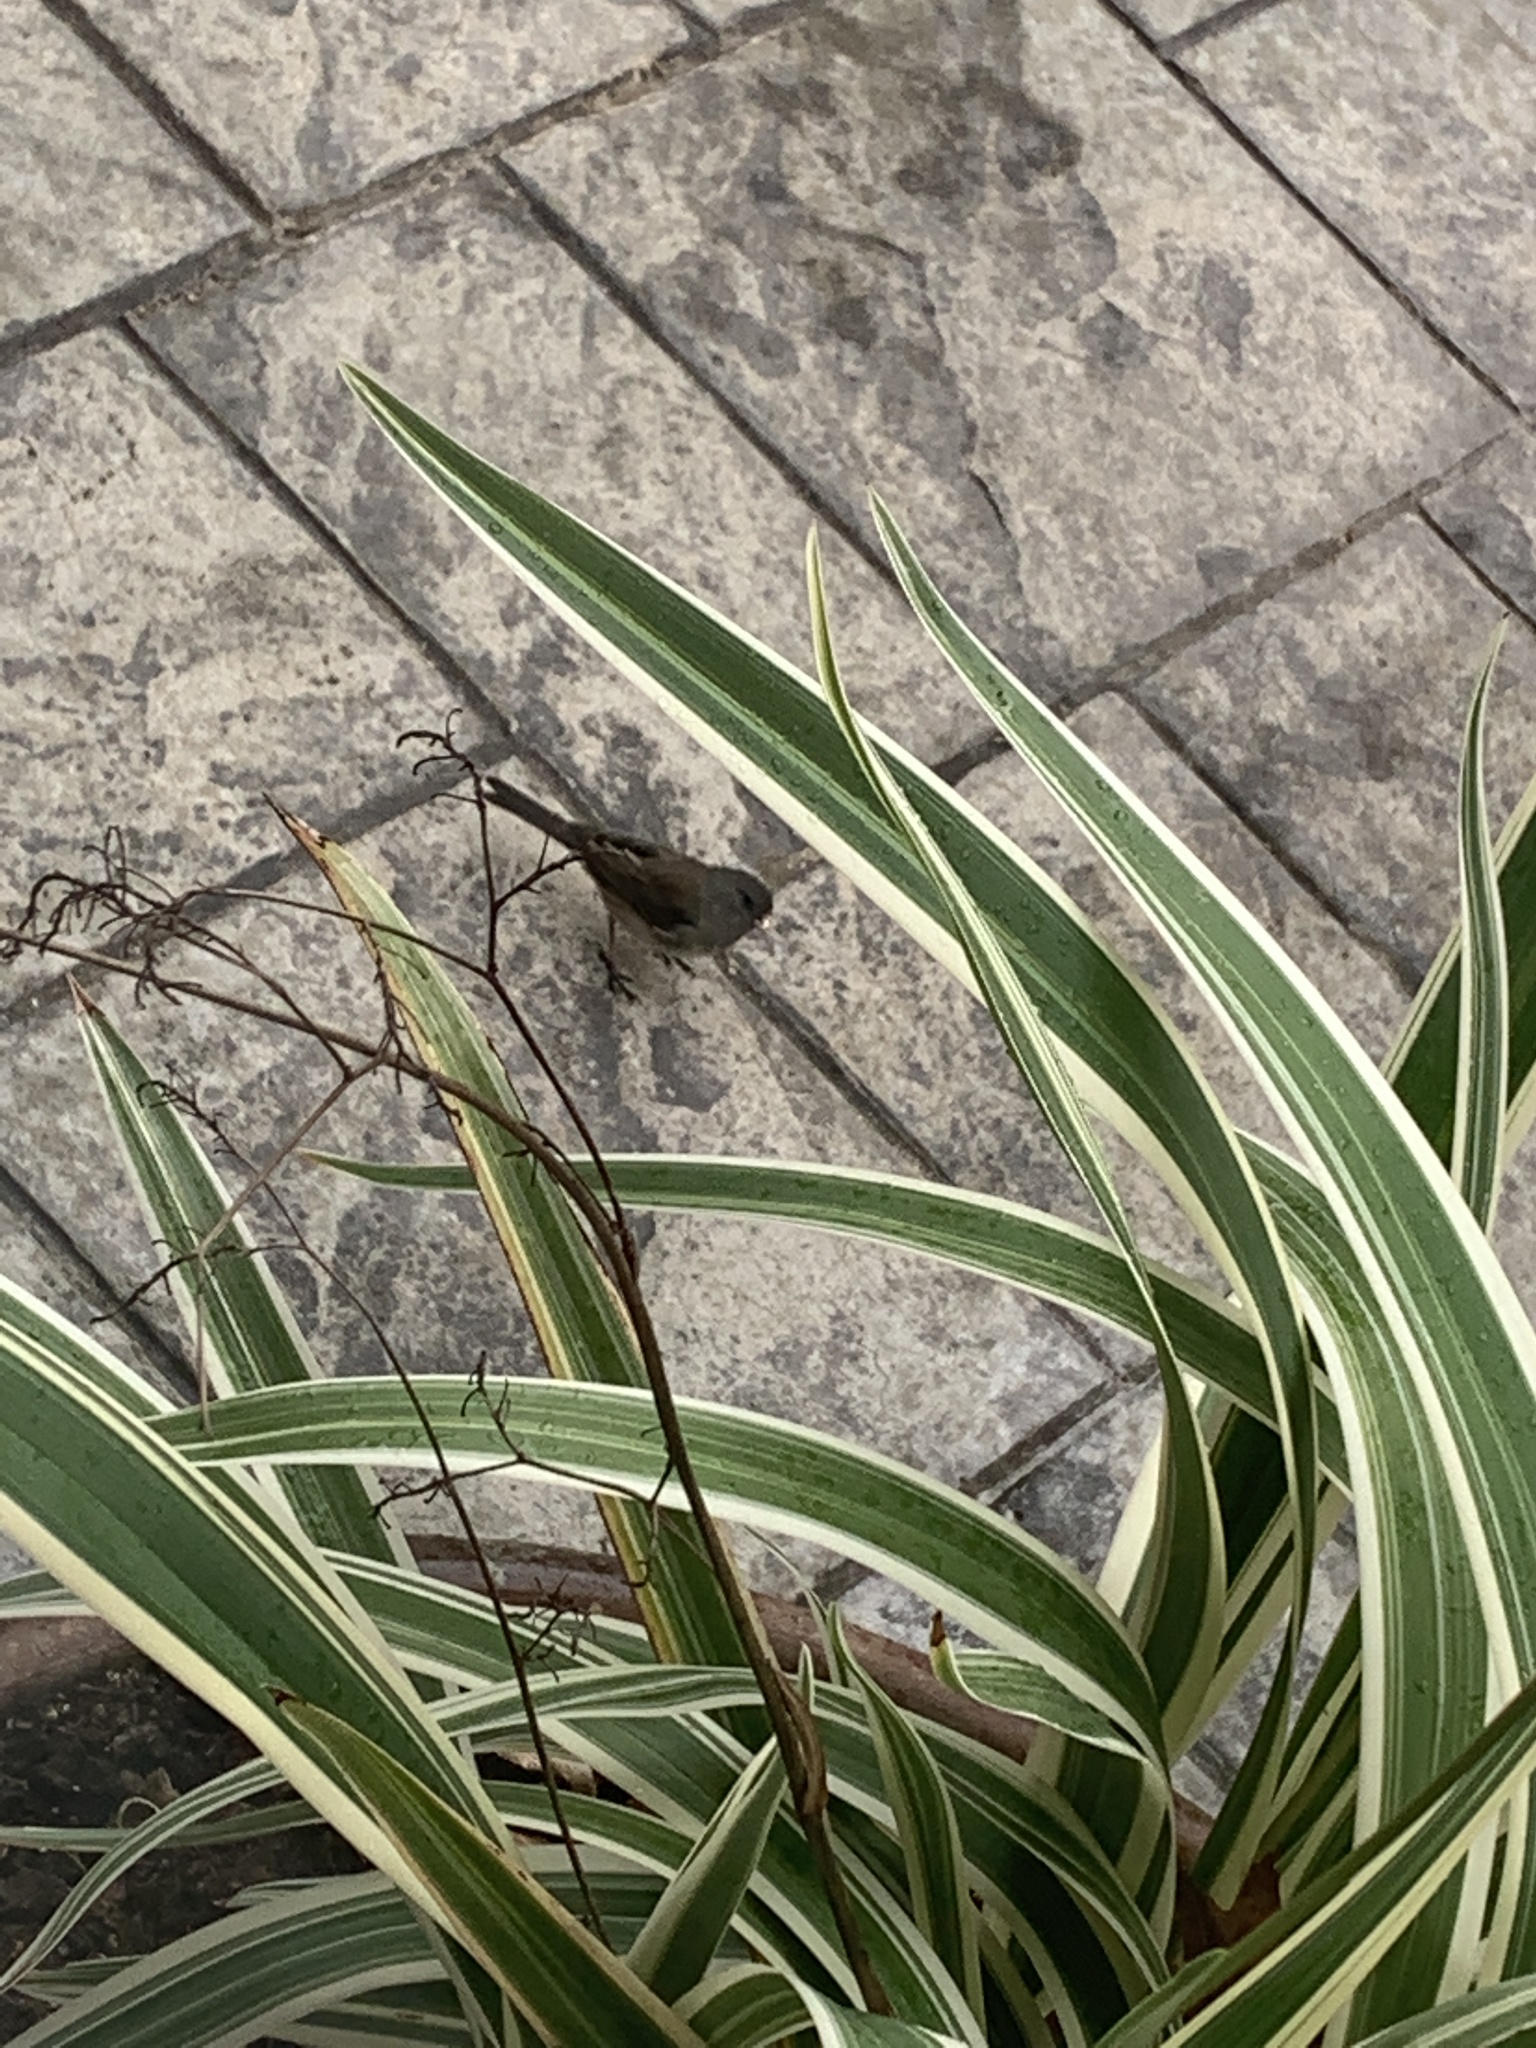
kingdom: Animalia
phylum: Chordata
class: Aves
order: Passeriformes
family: Passerellidae
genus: Junco
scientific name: Junco hyemalis
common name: Dark-eyed junco
